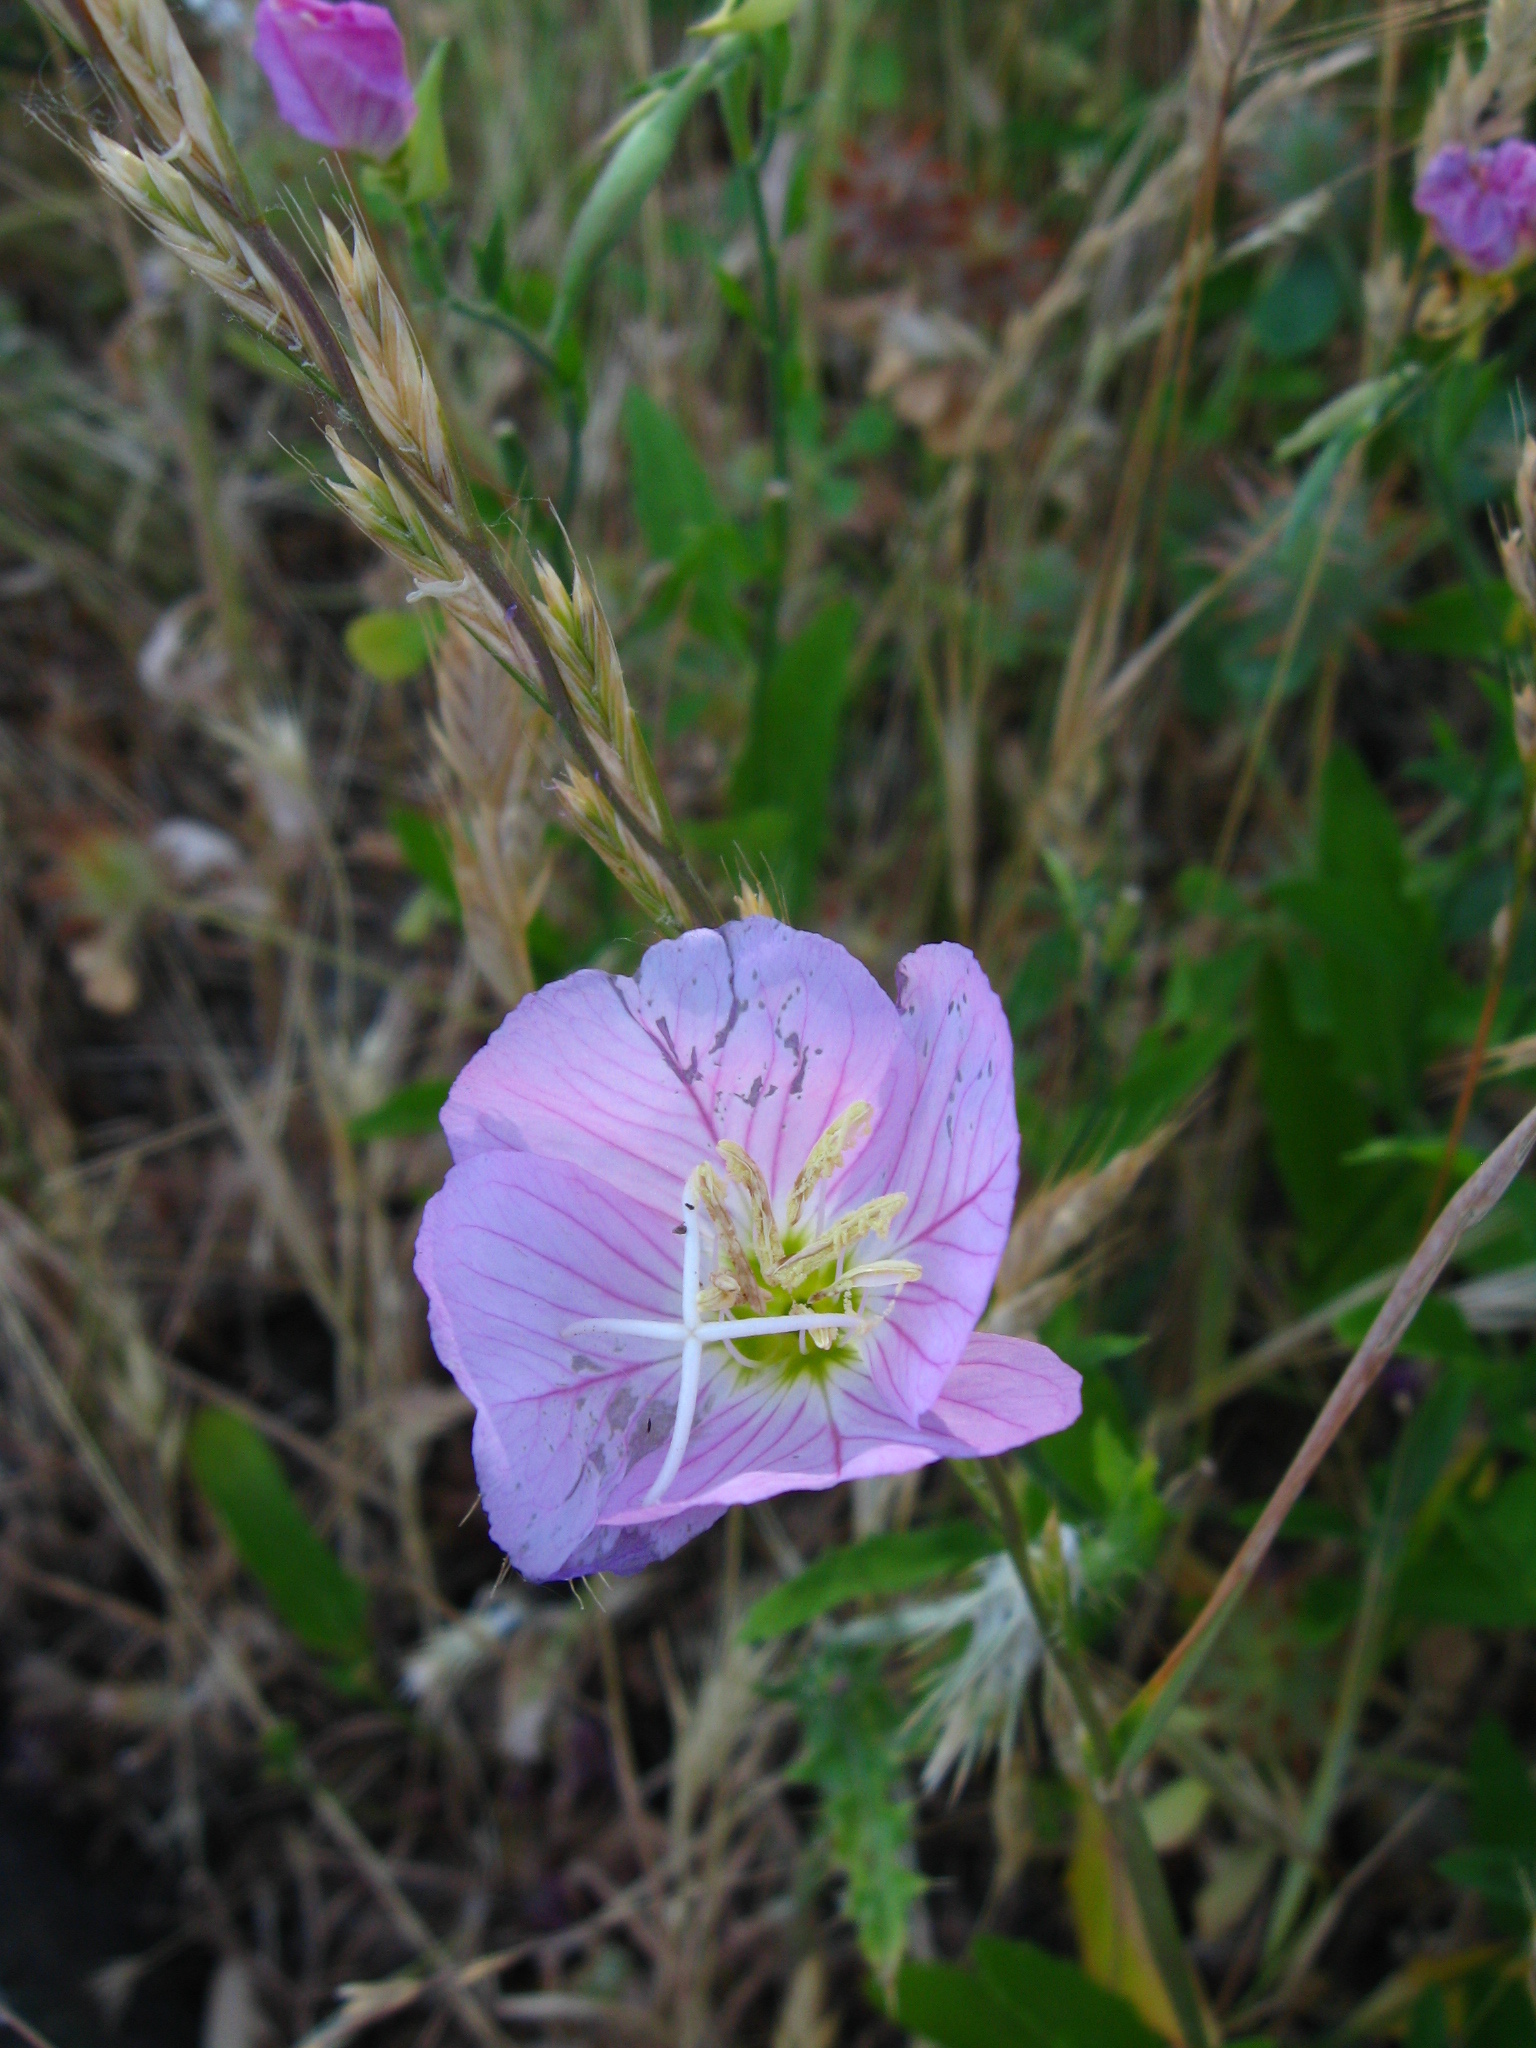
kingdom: Plantae
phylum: Tracheophyta
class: Magnoliopsida
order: Myrtales
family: Onagraceae
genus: Oenothera
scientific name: Oenothera speciosa
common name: White evening-primrose
